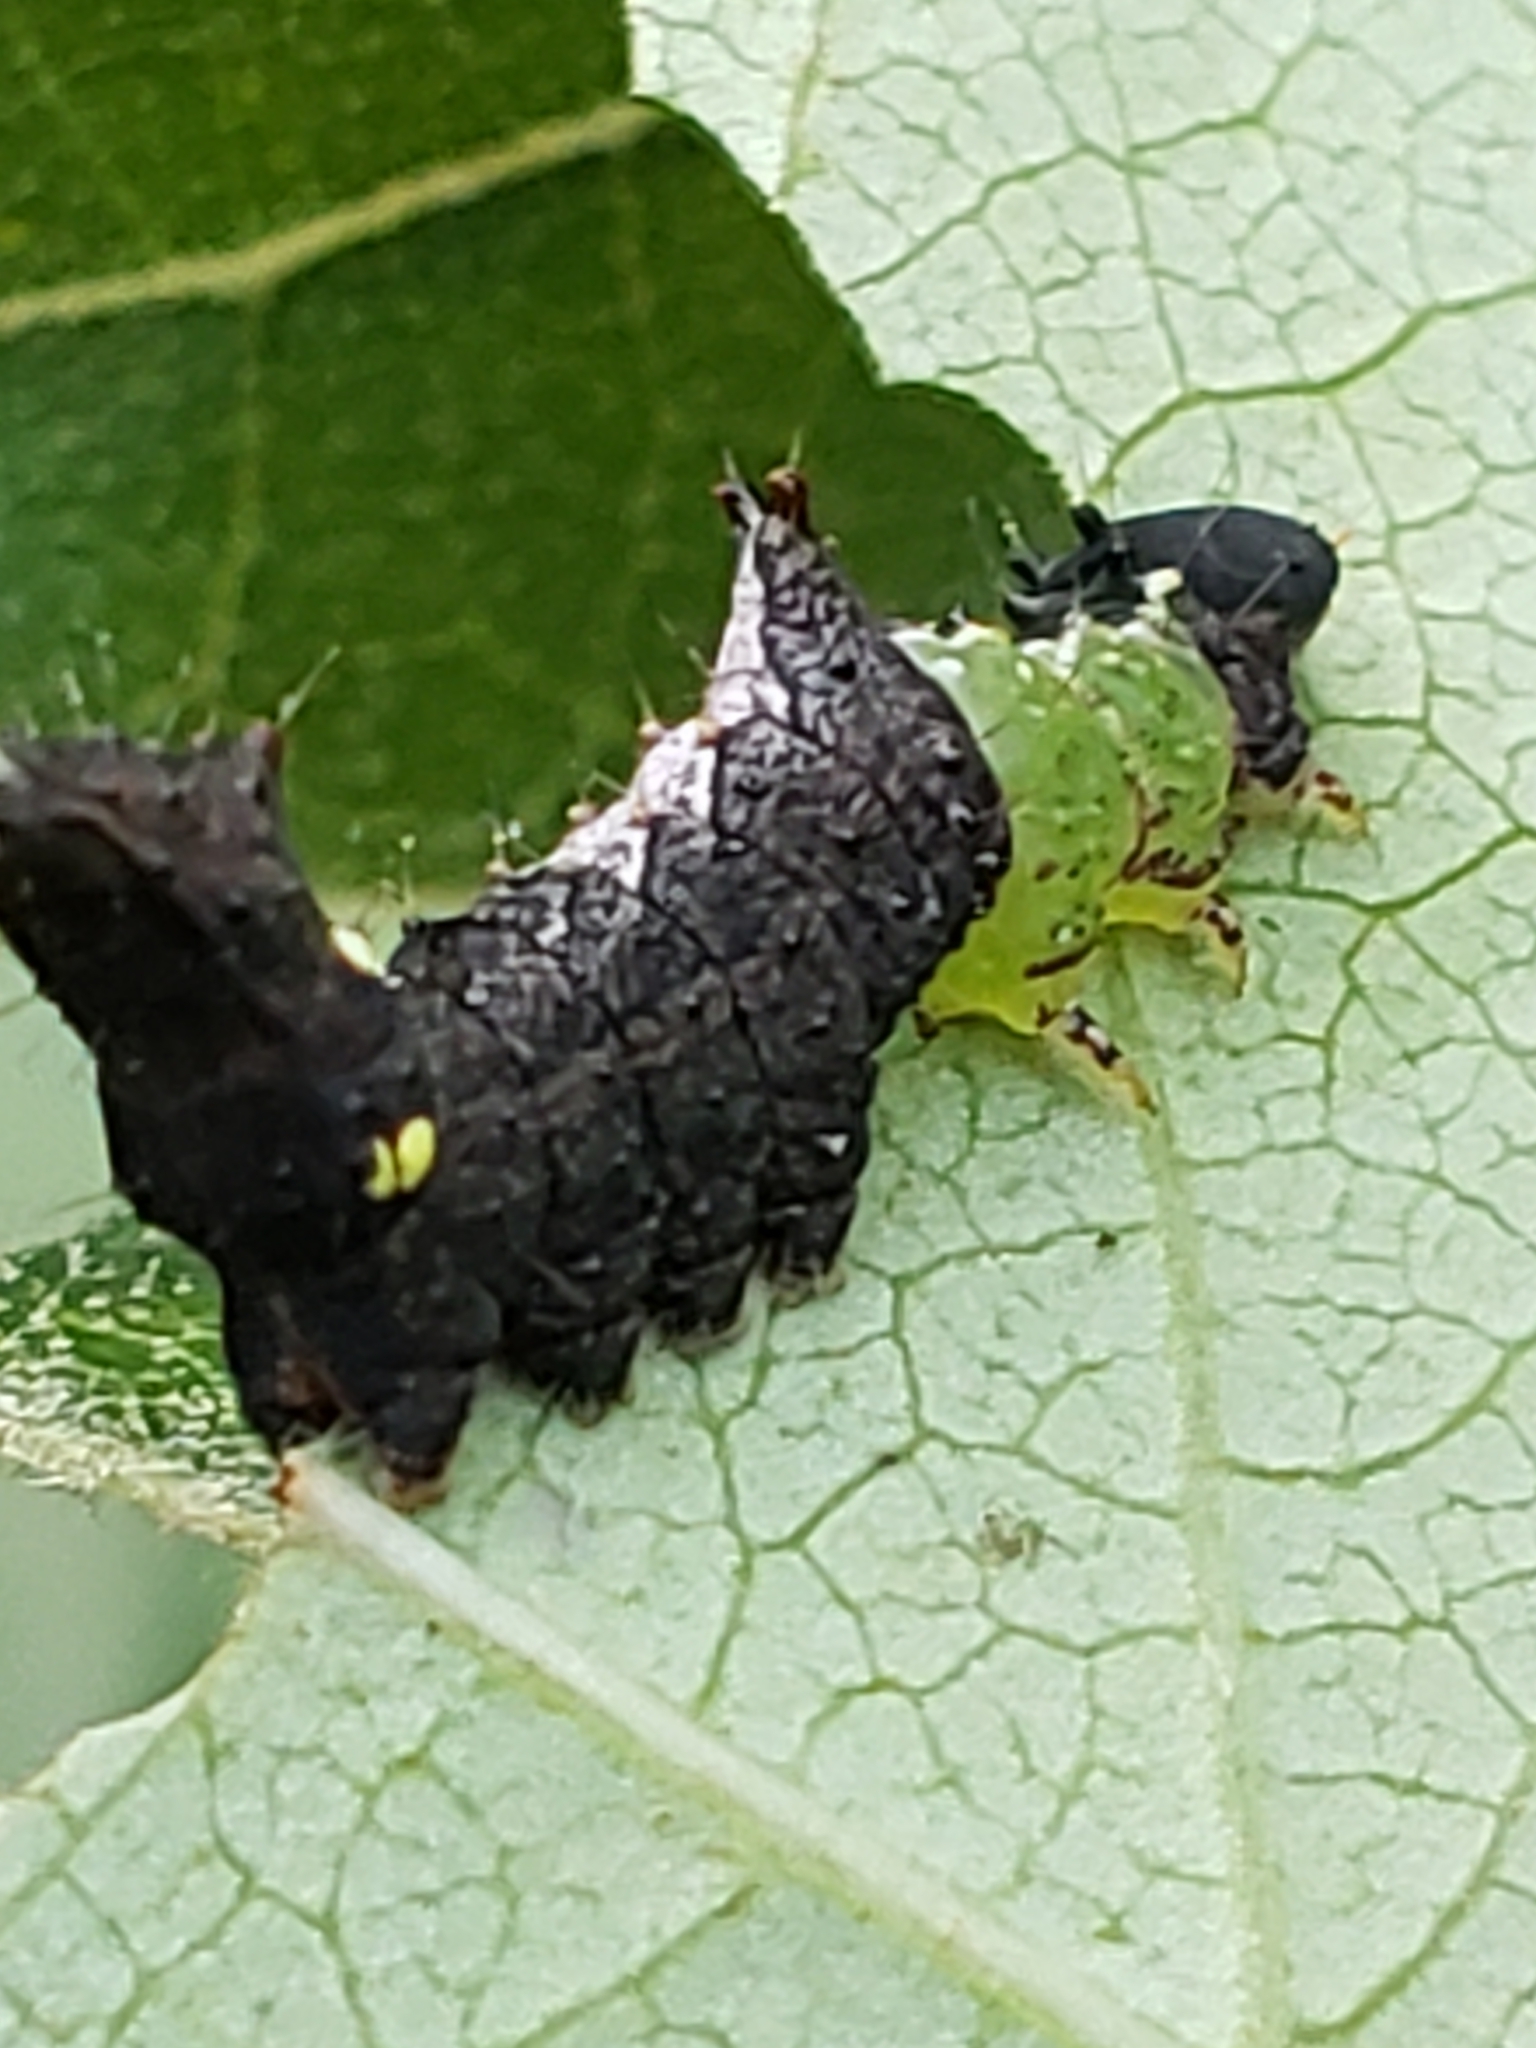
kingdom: Animalia
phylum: Arthropoda
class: Insecta
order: Lepidoptera
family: Notodontidae
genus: Schizura
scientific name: Schizura
